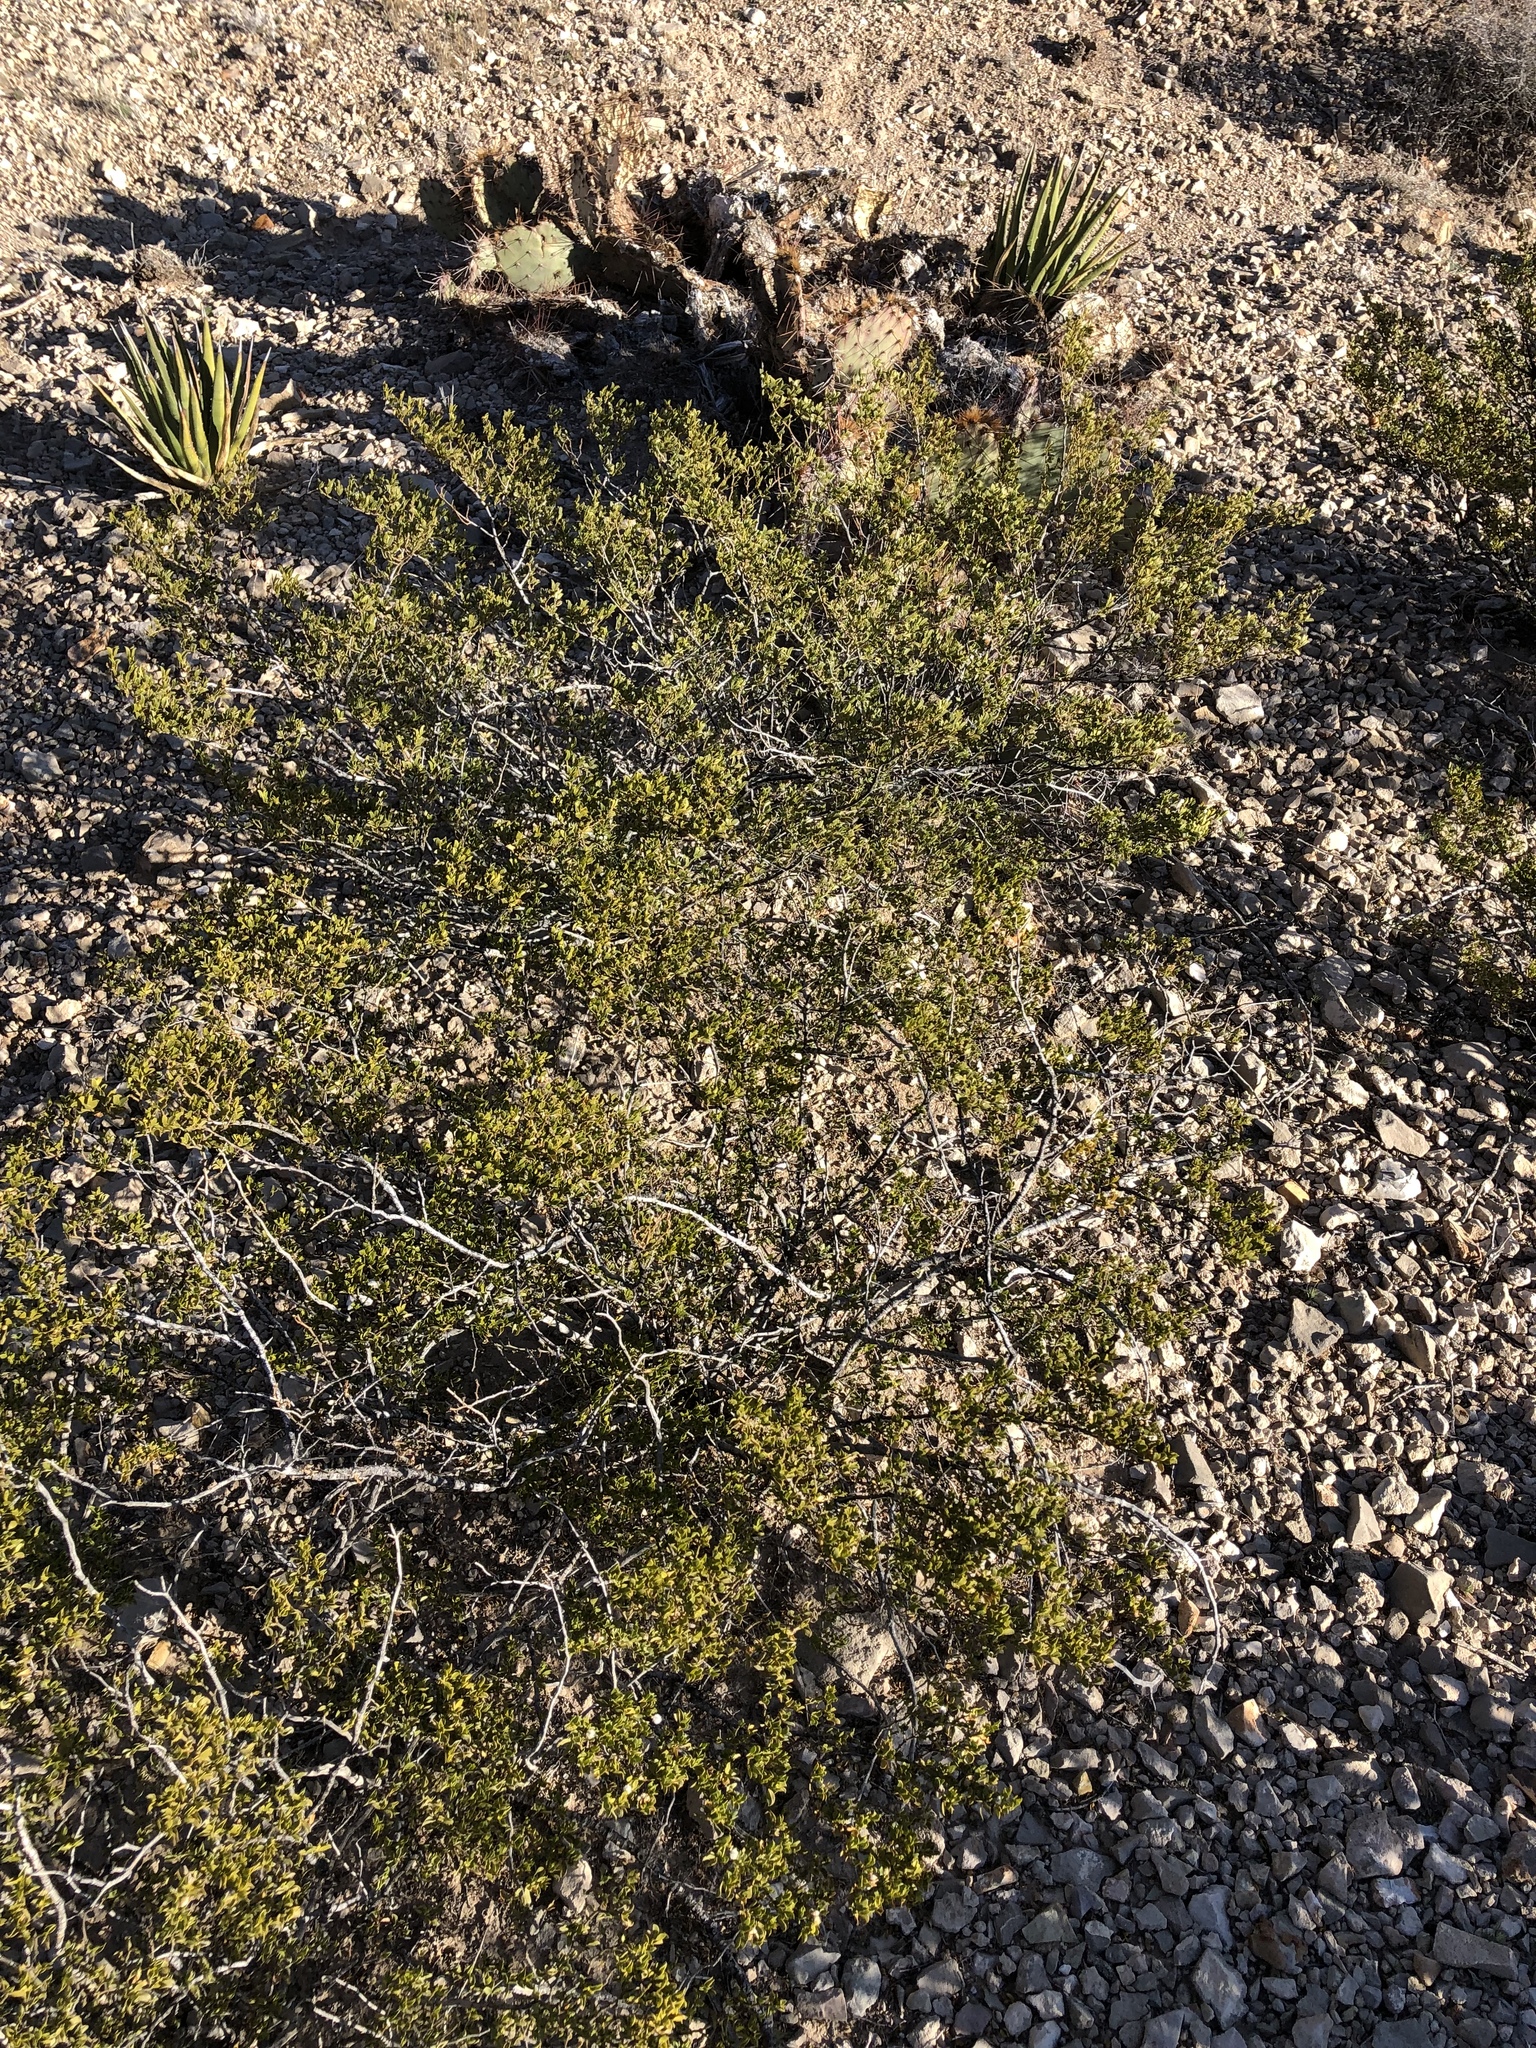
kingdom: Plantae
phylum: Tracheophyta
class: Magnoliopsida
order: Zygophyllales
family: Zygophyllaceae
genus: Larrea
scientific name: Larrea tridentata
